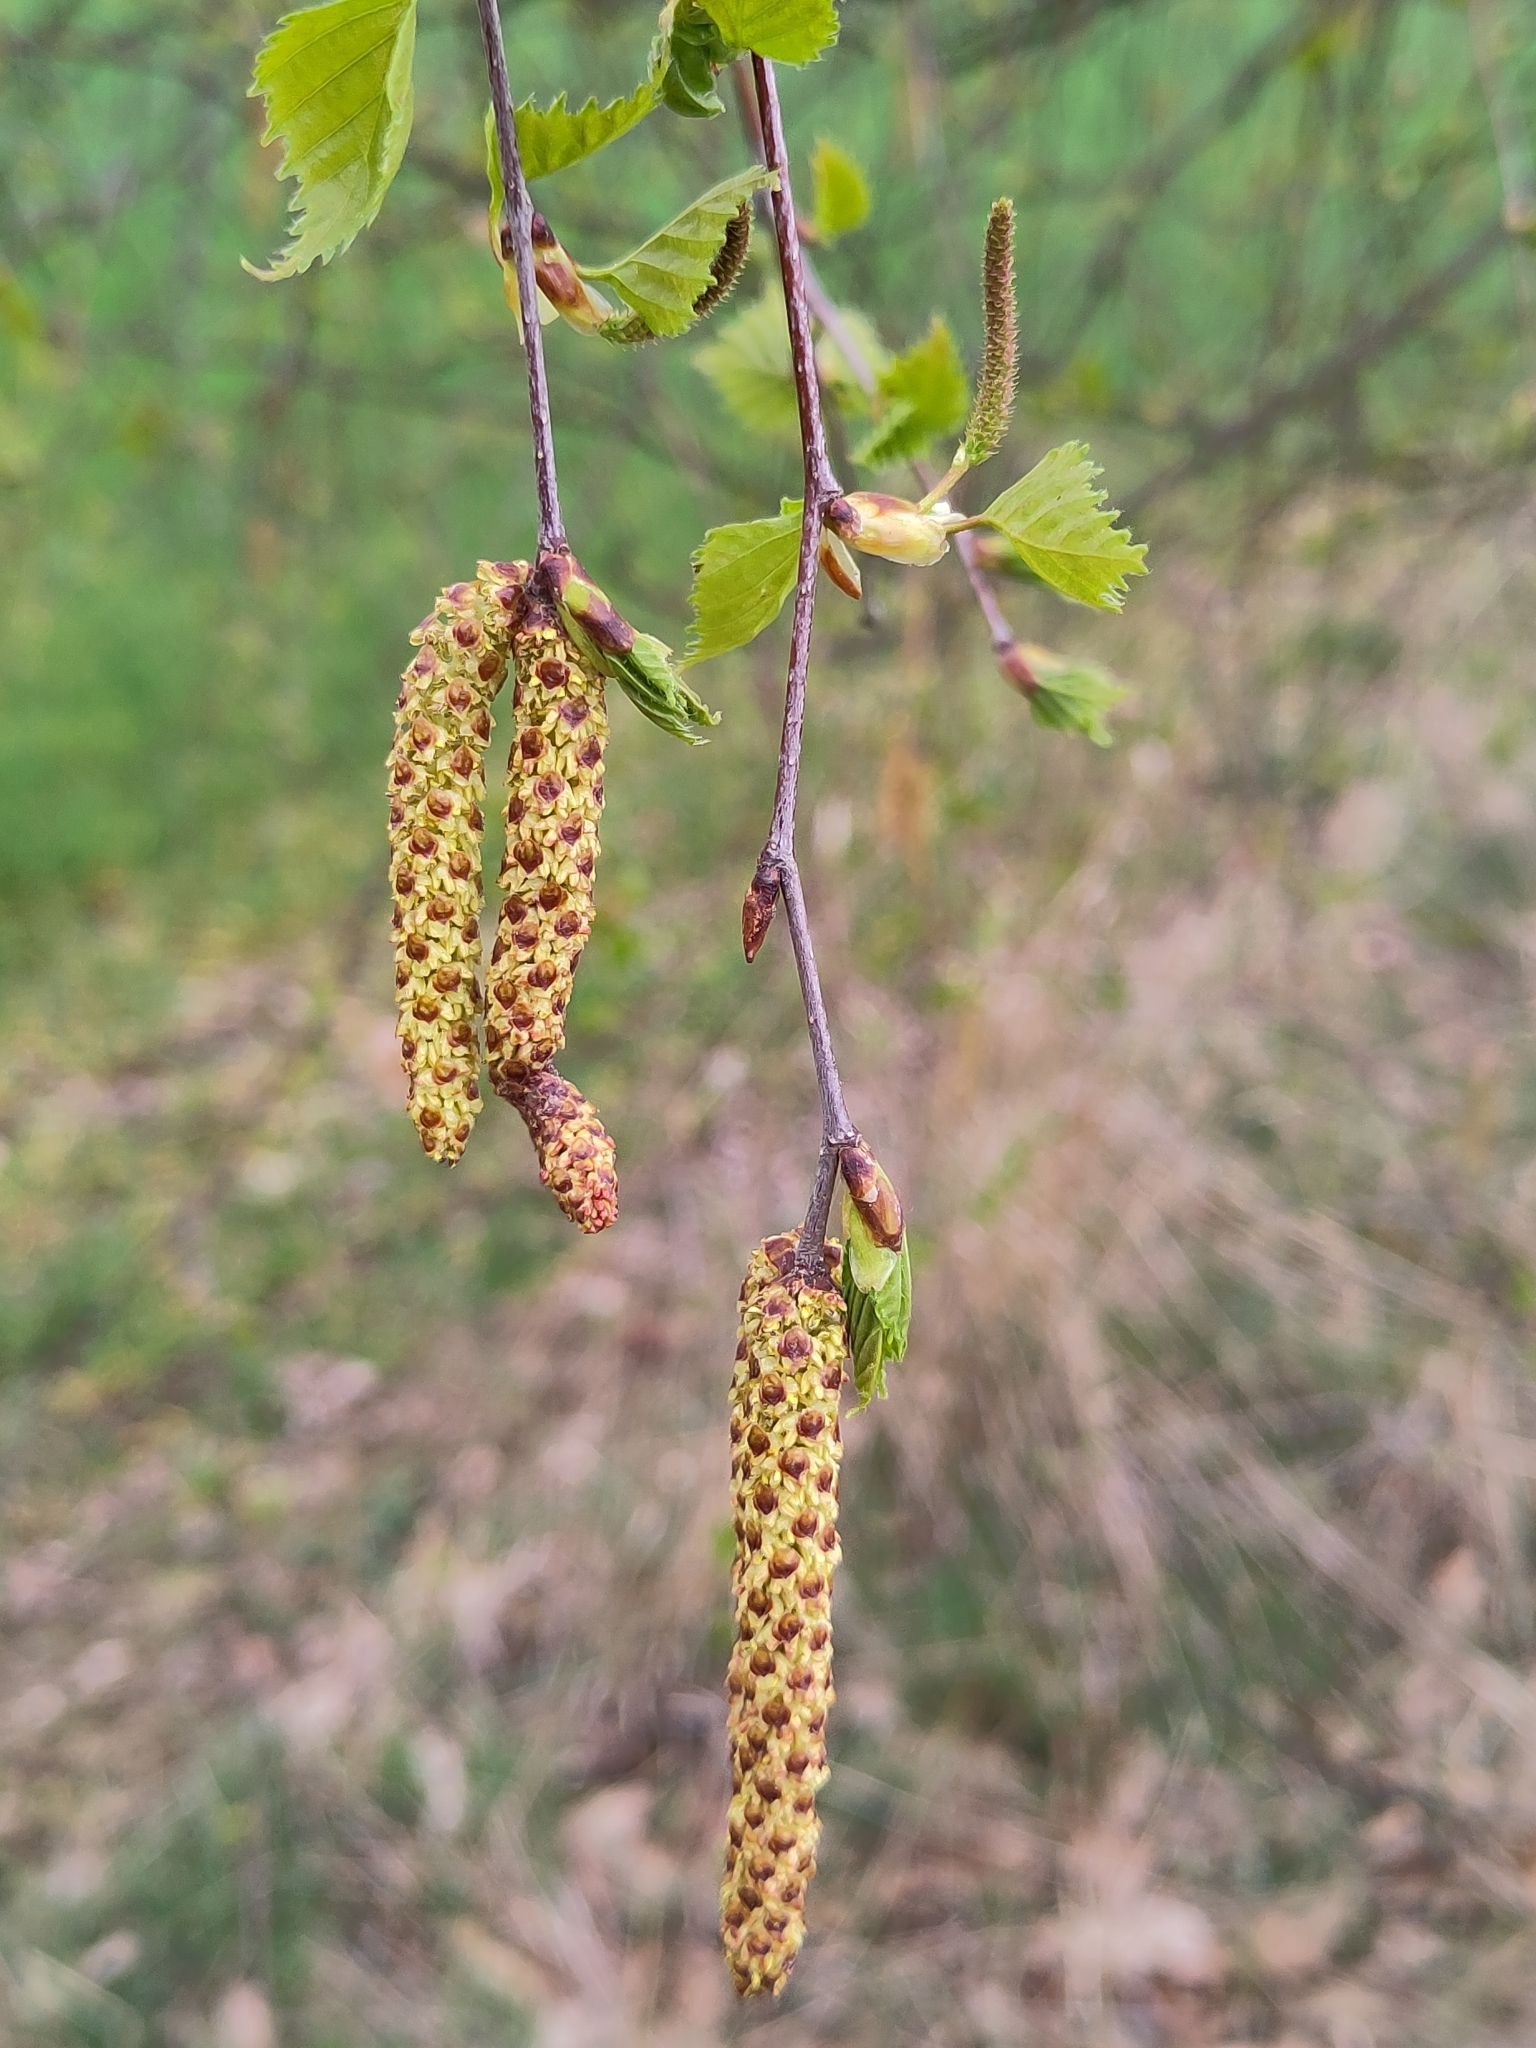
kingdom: Plantae
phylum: Tracheophyta
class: Magnoliopsida
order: Fagales
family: Betulaceae
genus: Betula
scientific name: Betula pendula
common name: Silver birch
